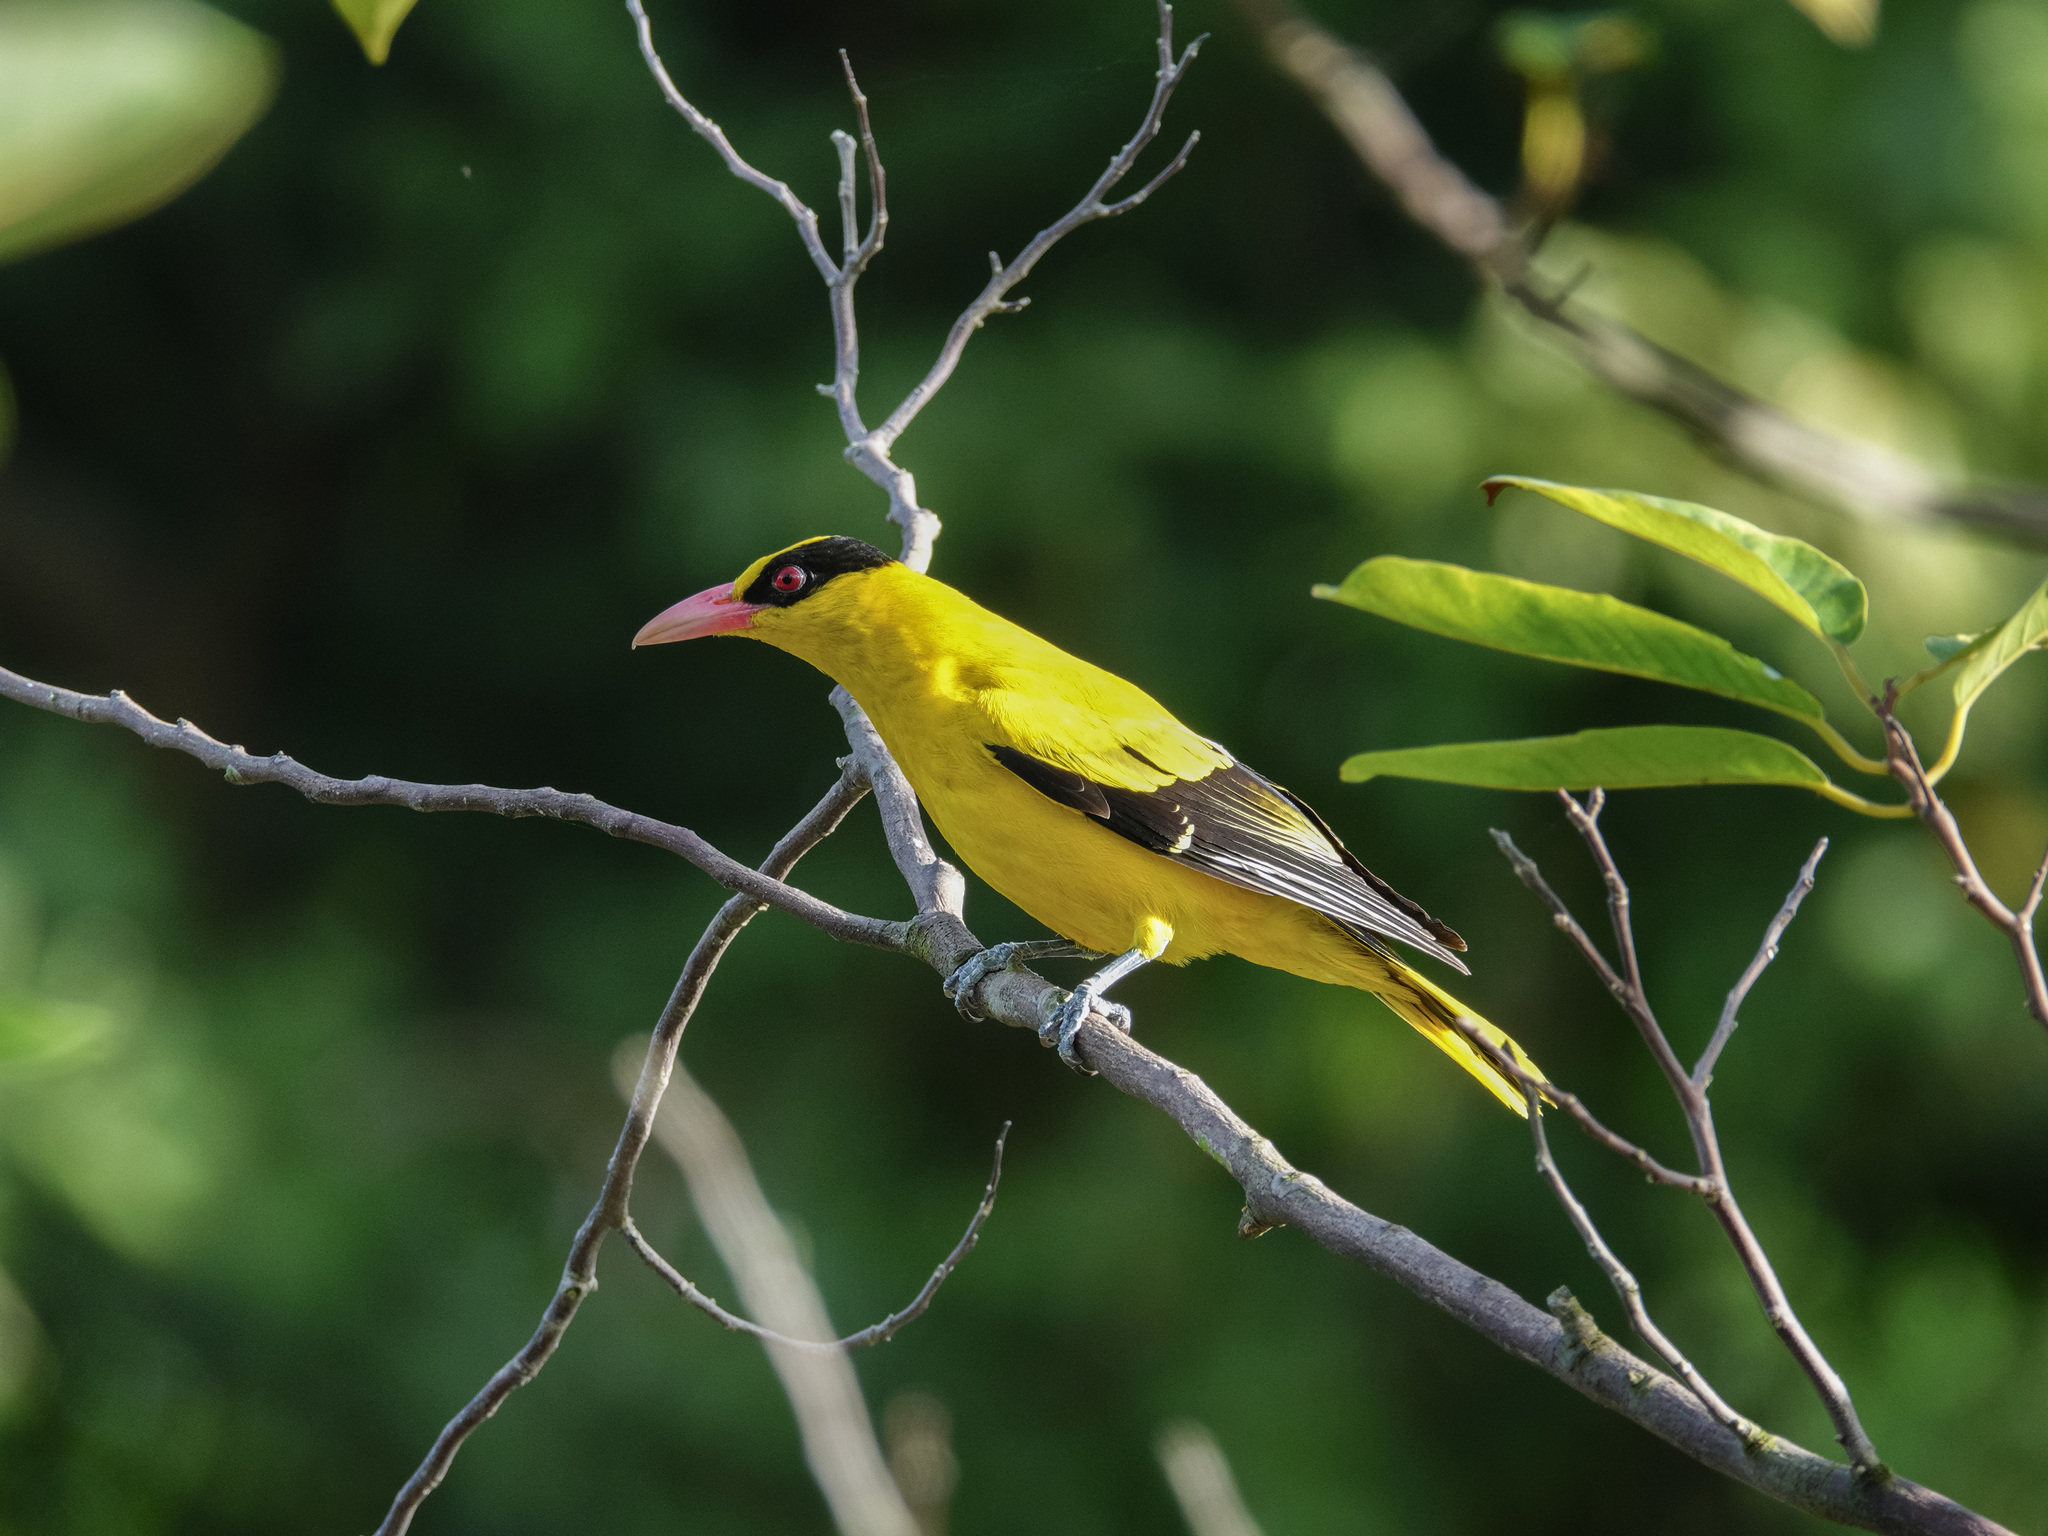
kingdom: Animalia
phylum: Chordata
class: Aves
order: Passeriformes
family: Oriolidae
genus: Oriolus
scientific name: Oriolus chinensis
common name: Black-naped oriole
